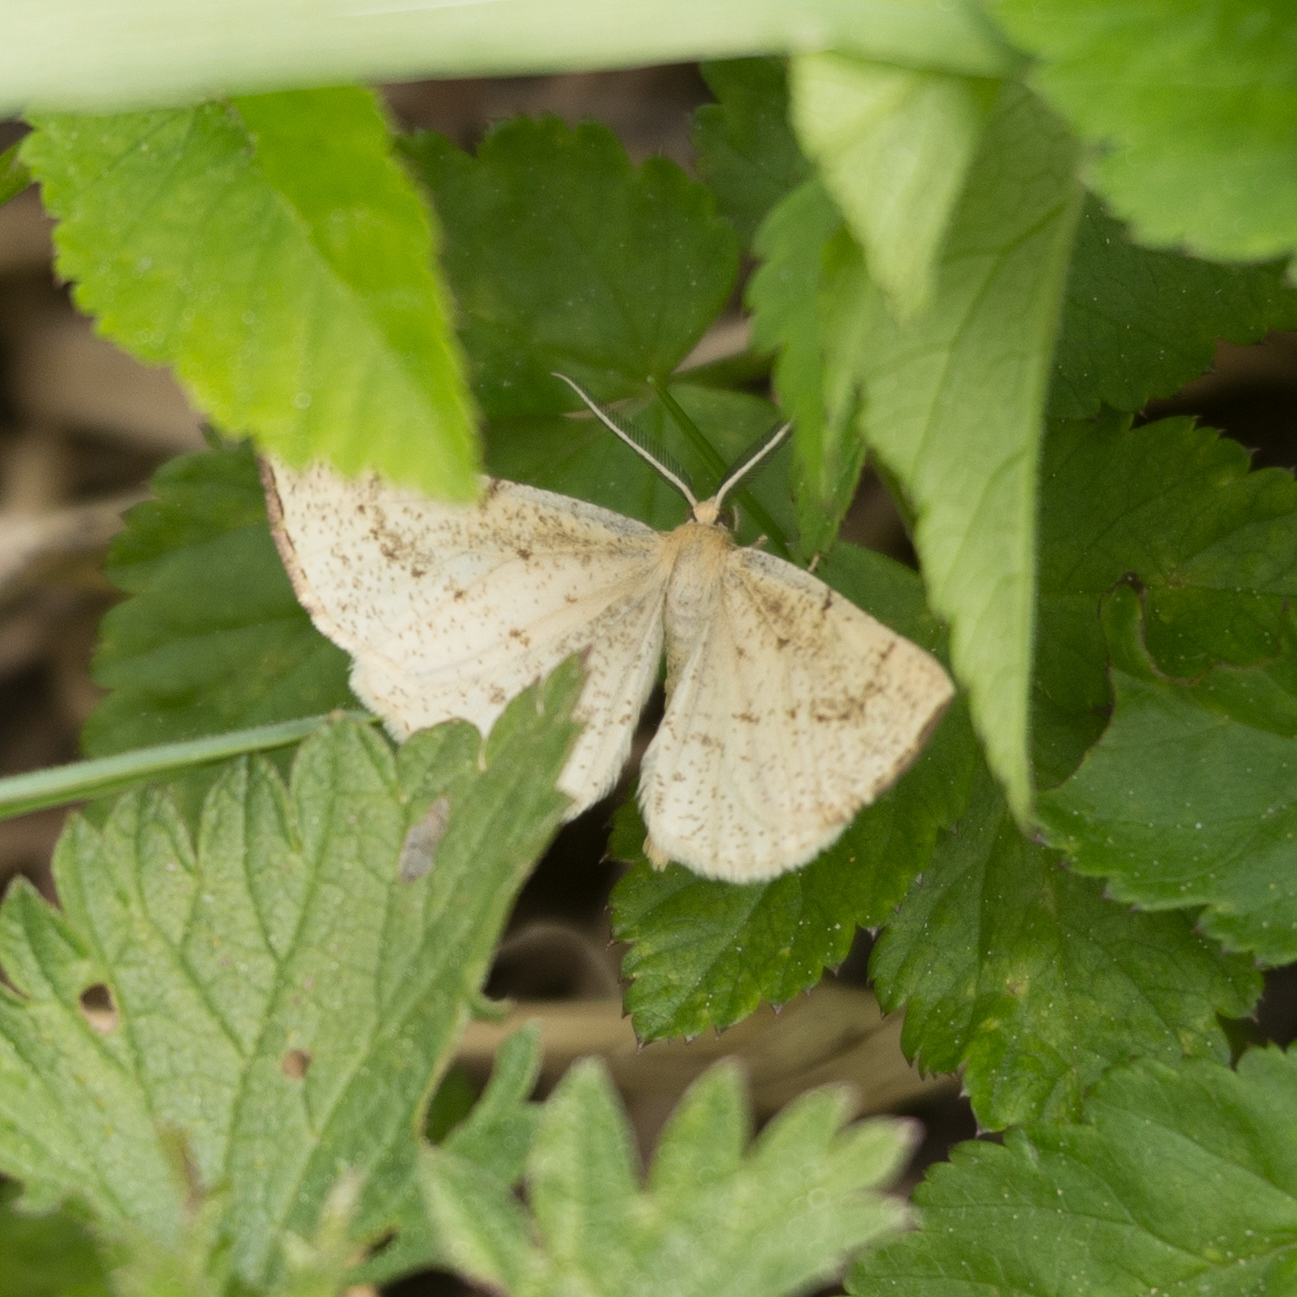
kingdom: Animalia
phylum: Arthropoda
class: Insecta
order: Lepidoptera
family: Geometridae
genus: Hypoxystis
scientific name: Hypoxystis pluviaria
